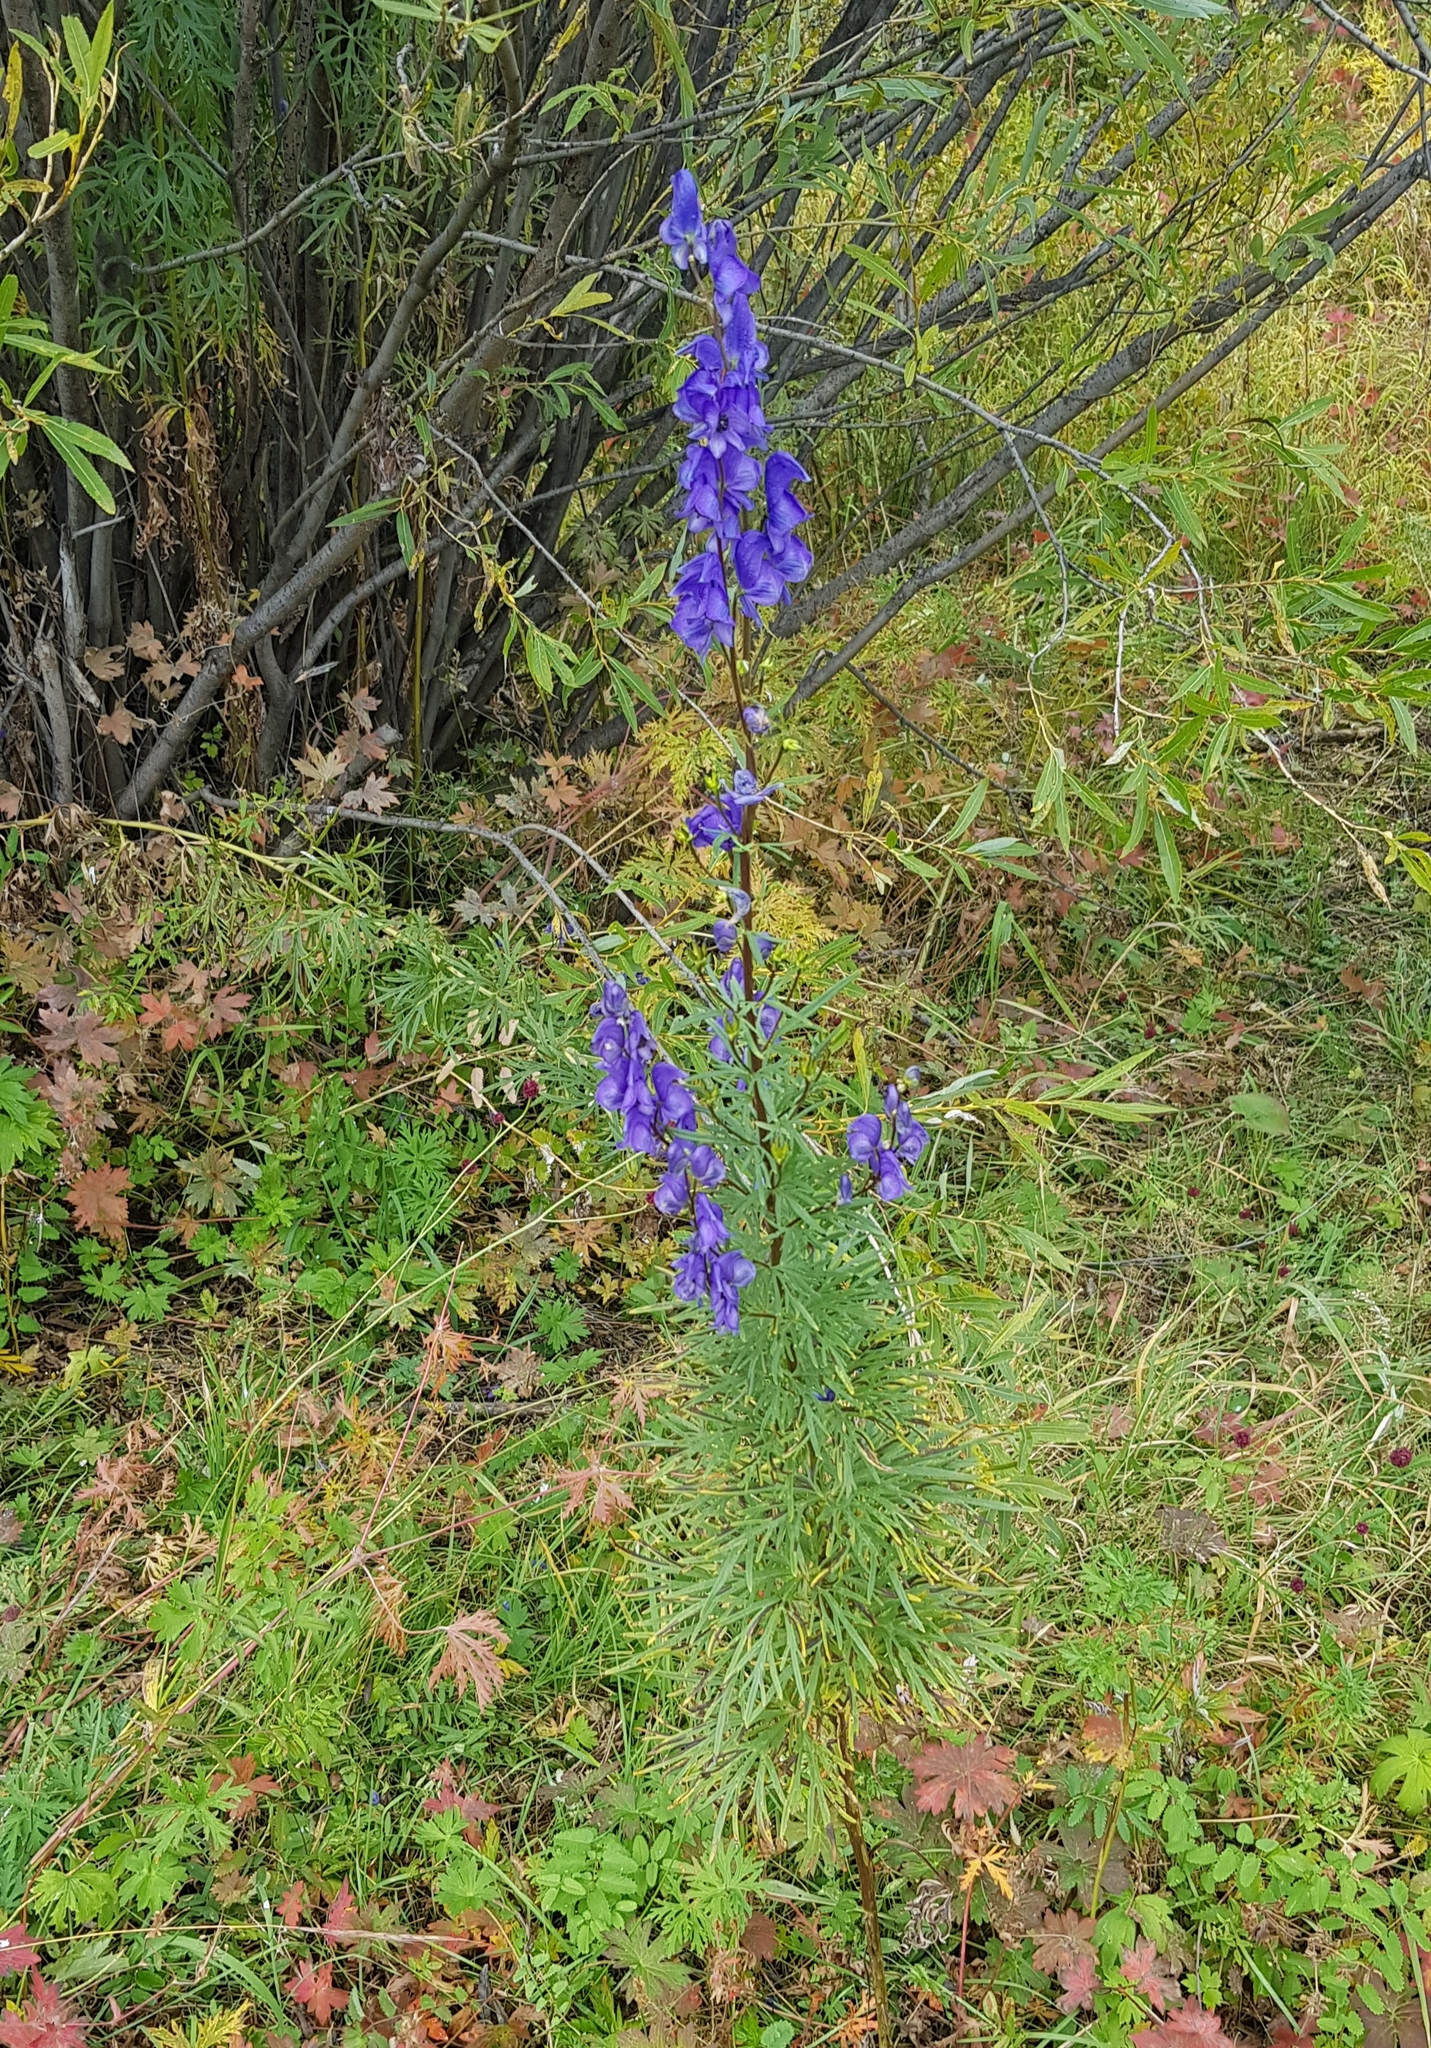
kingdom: Plantae
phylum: Tracheophyta
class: Magnoliopsida
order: Ranunculales
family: Ranunculaceae
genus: Aconitum
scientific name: Aconitum turczaninowii
